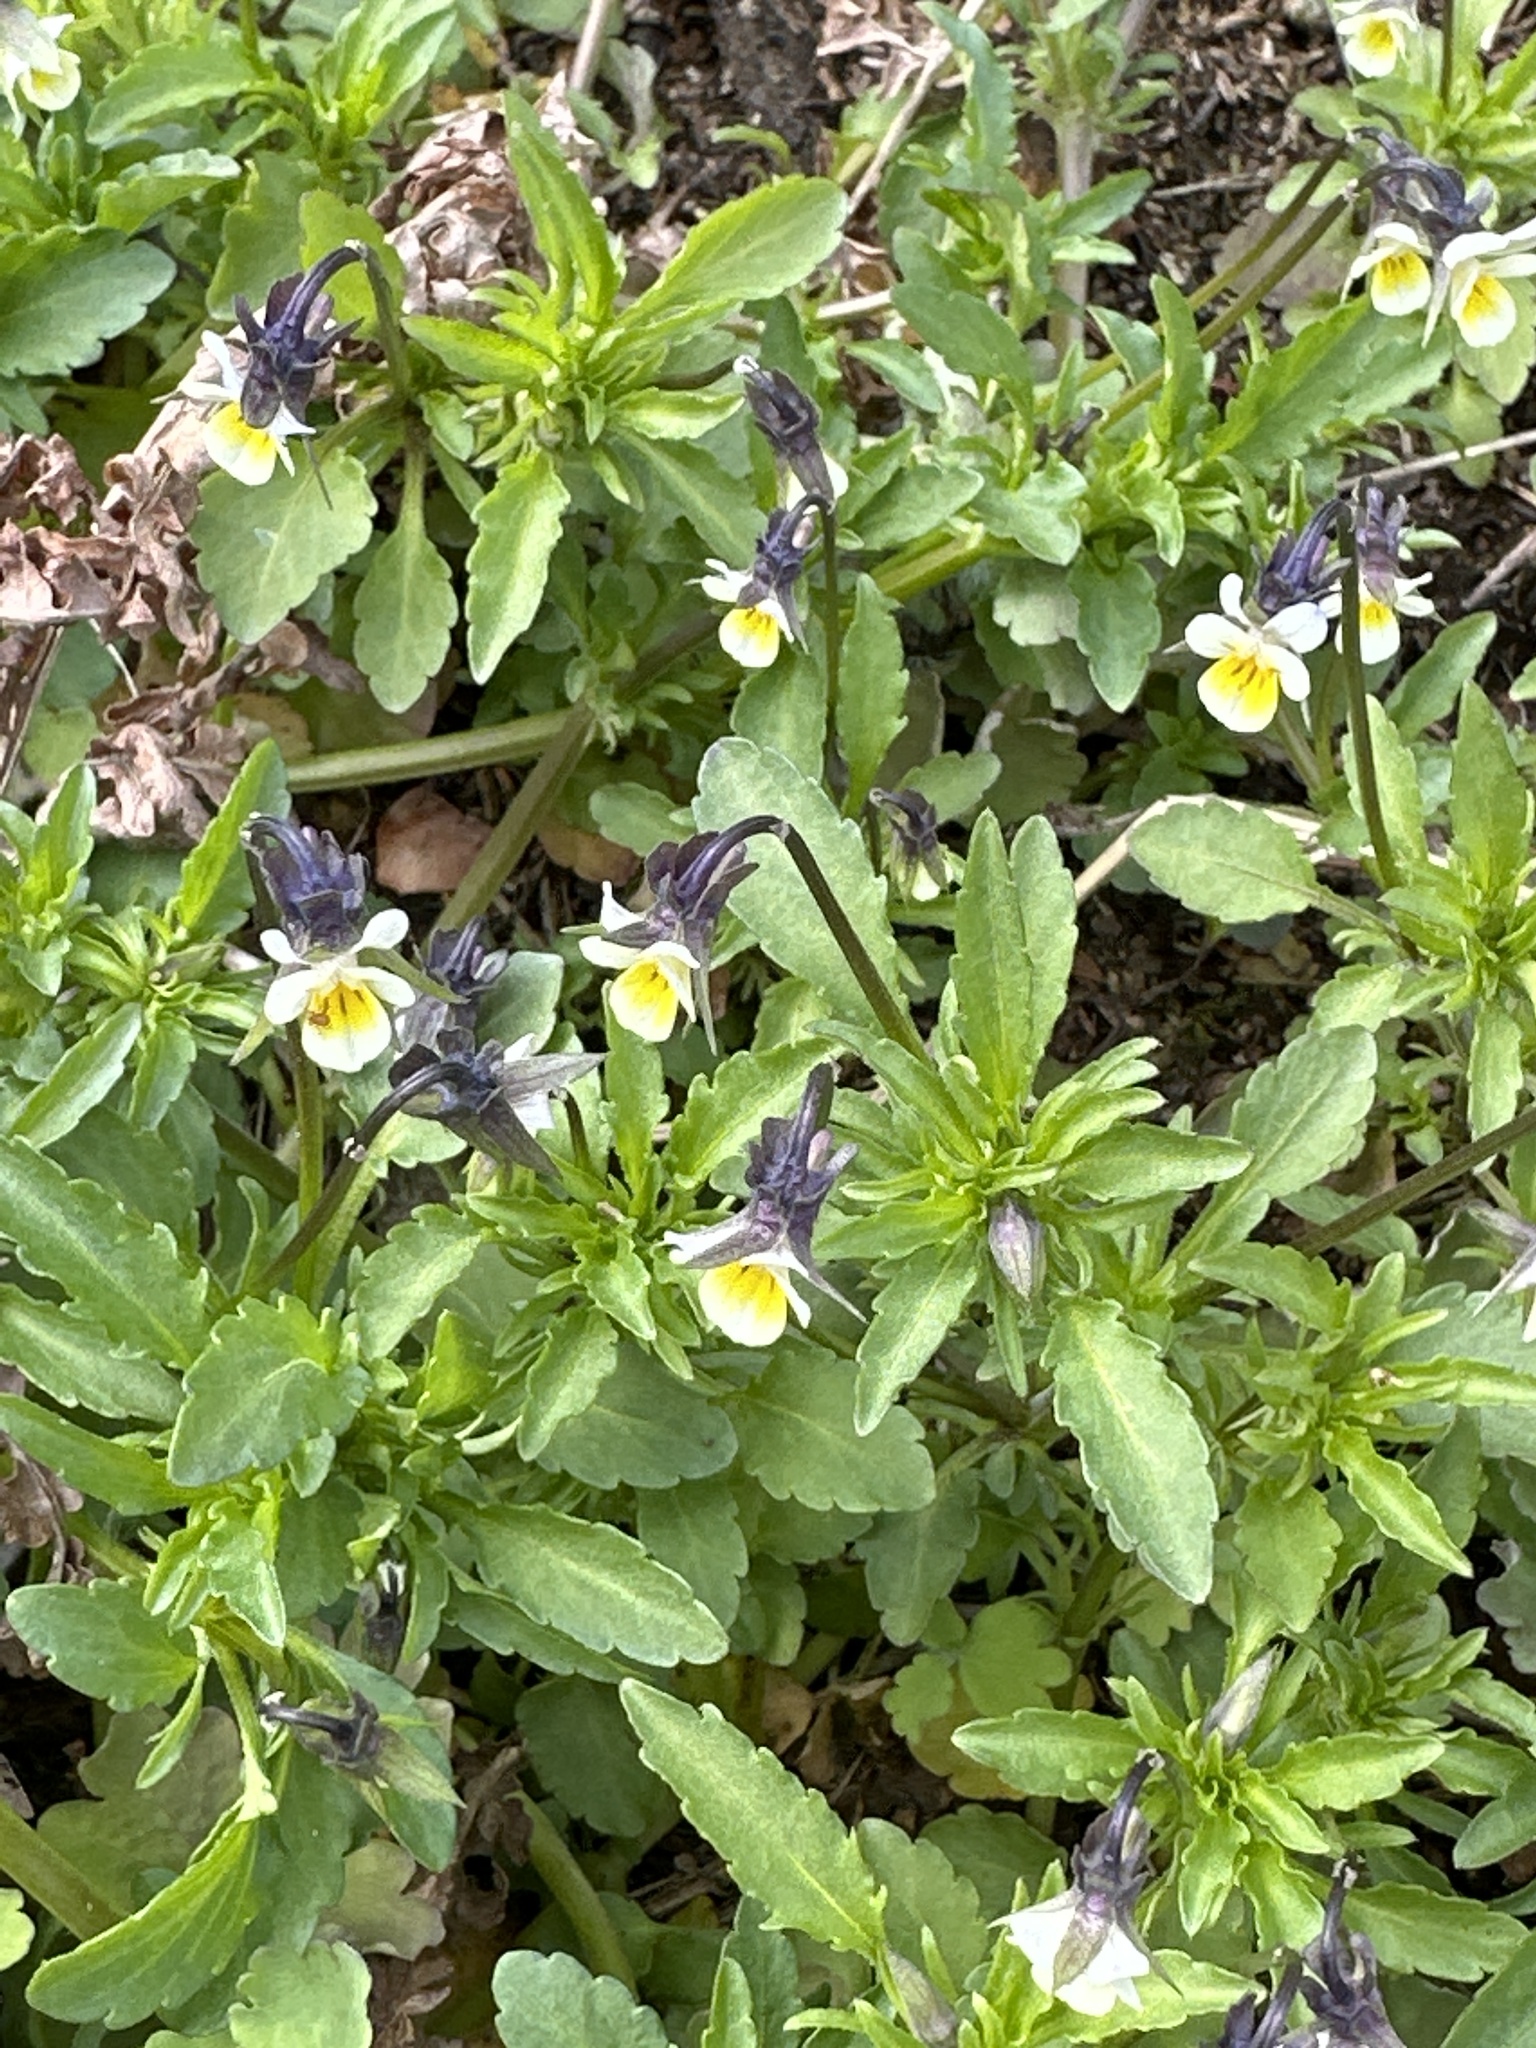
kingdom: Plantae
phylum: Tracheophyta
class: Magnoliopsida
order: Malpighiales
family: Violaceae
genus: Viola
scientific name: Viola arvensis
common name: Field pansy
